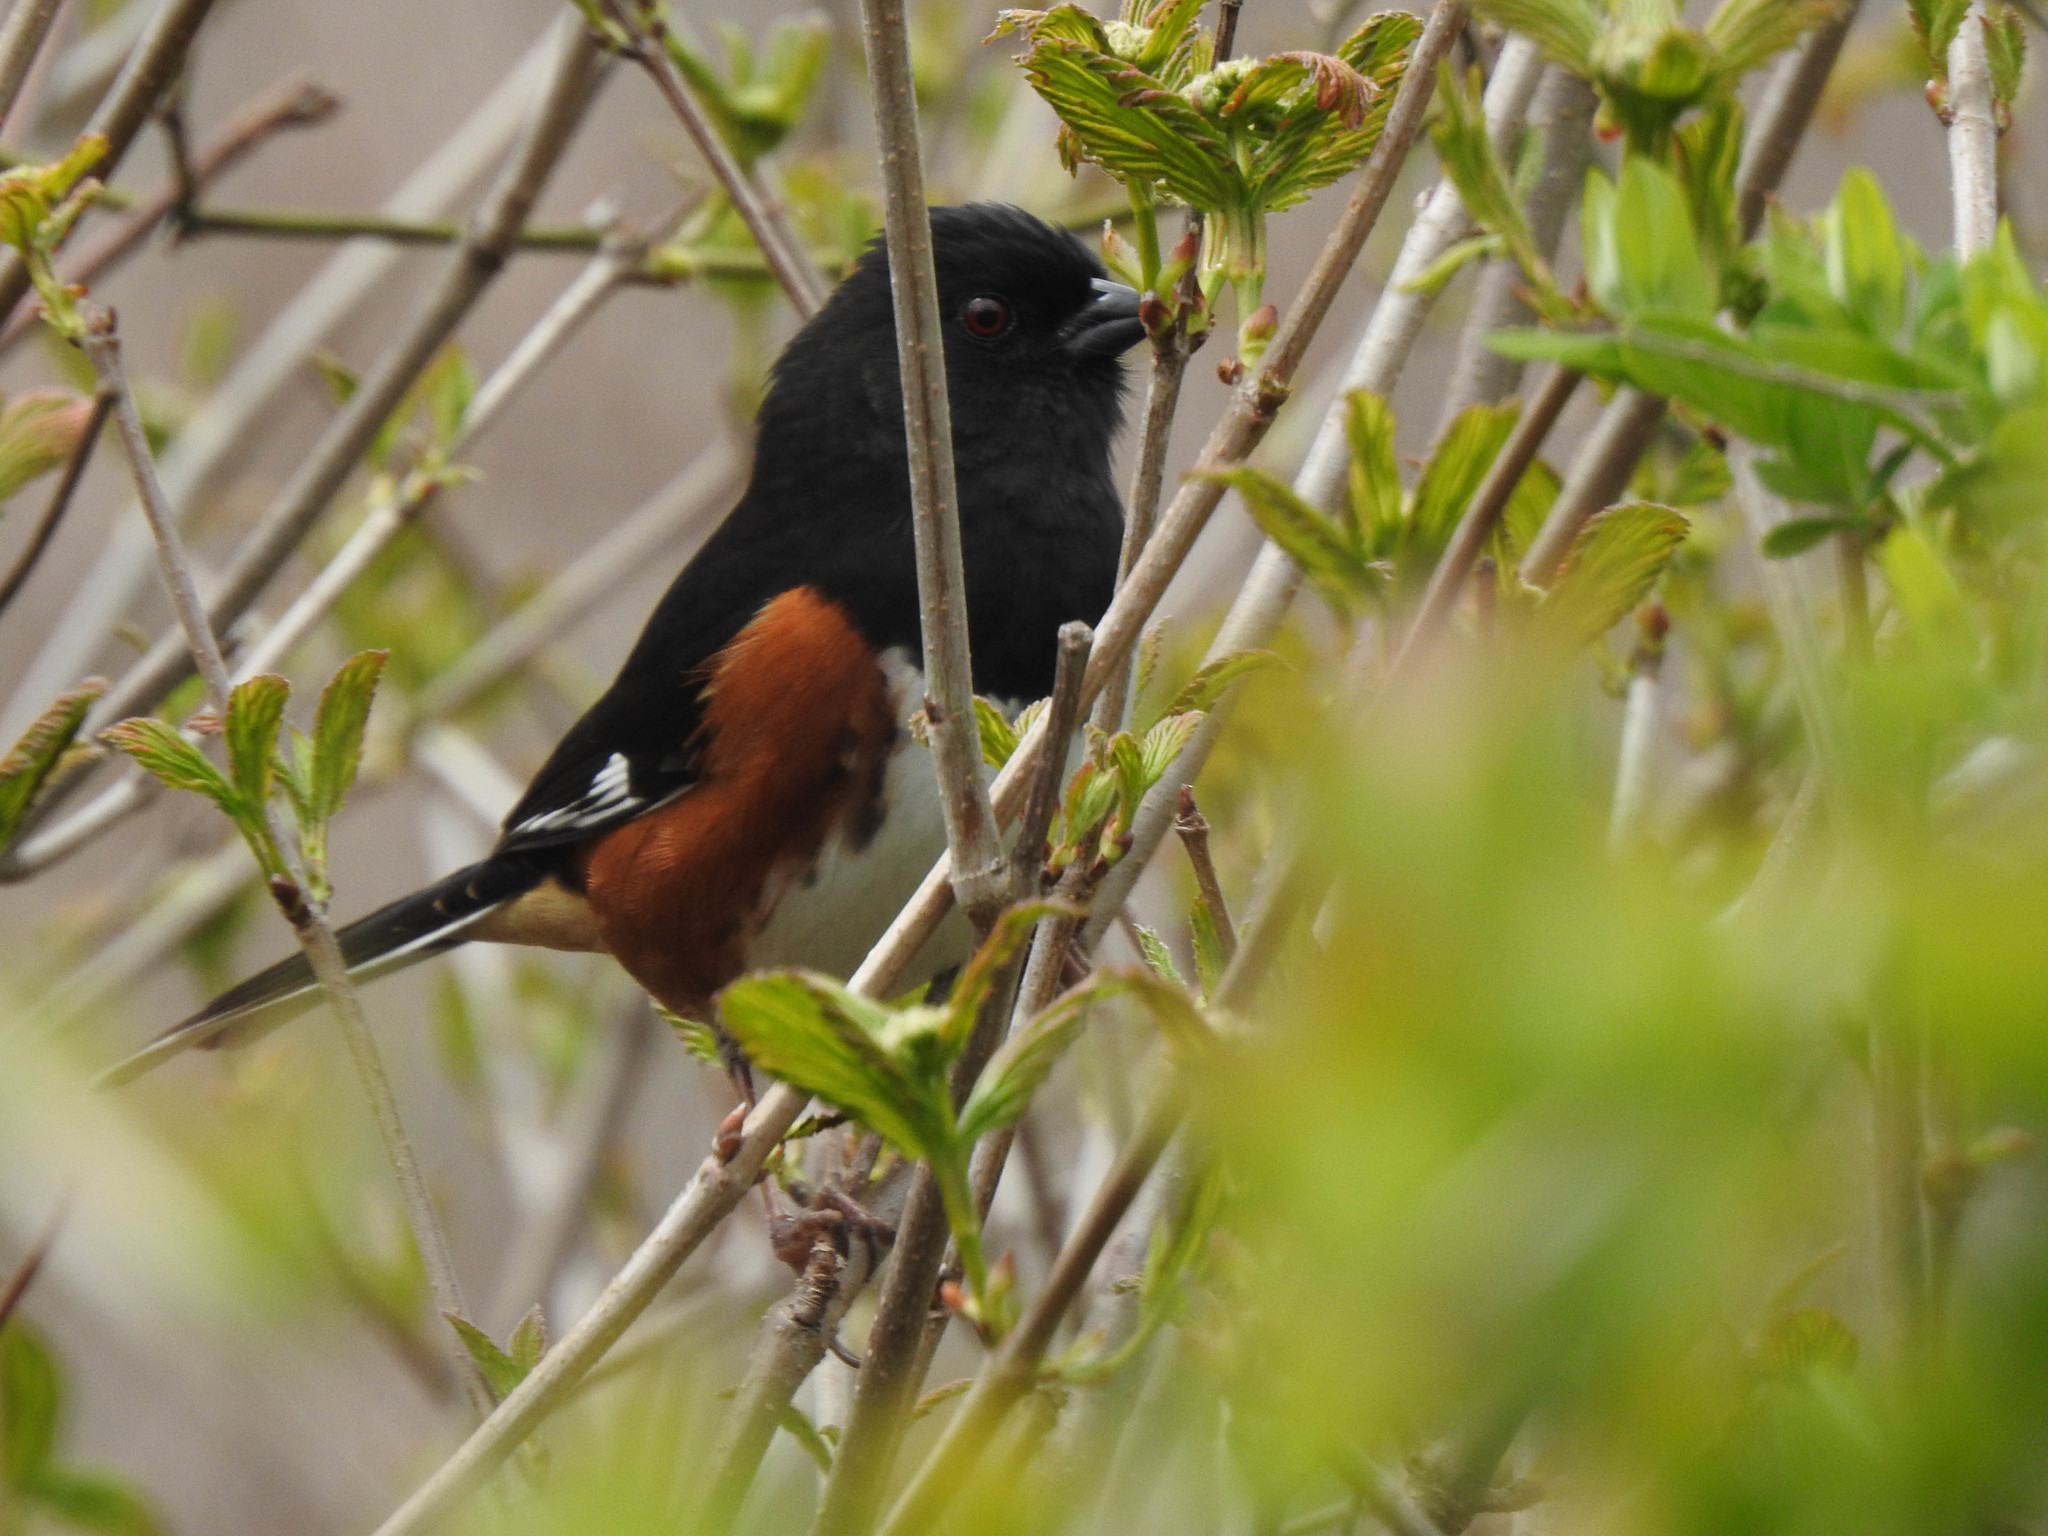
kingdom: Animalia
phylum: Chordata
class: Aves
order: Passeriformes
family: Passerellidae
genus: Pipilo
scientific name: Pipilo erythrophthalmus
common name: Eastern towhee
